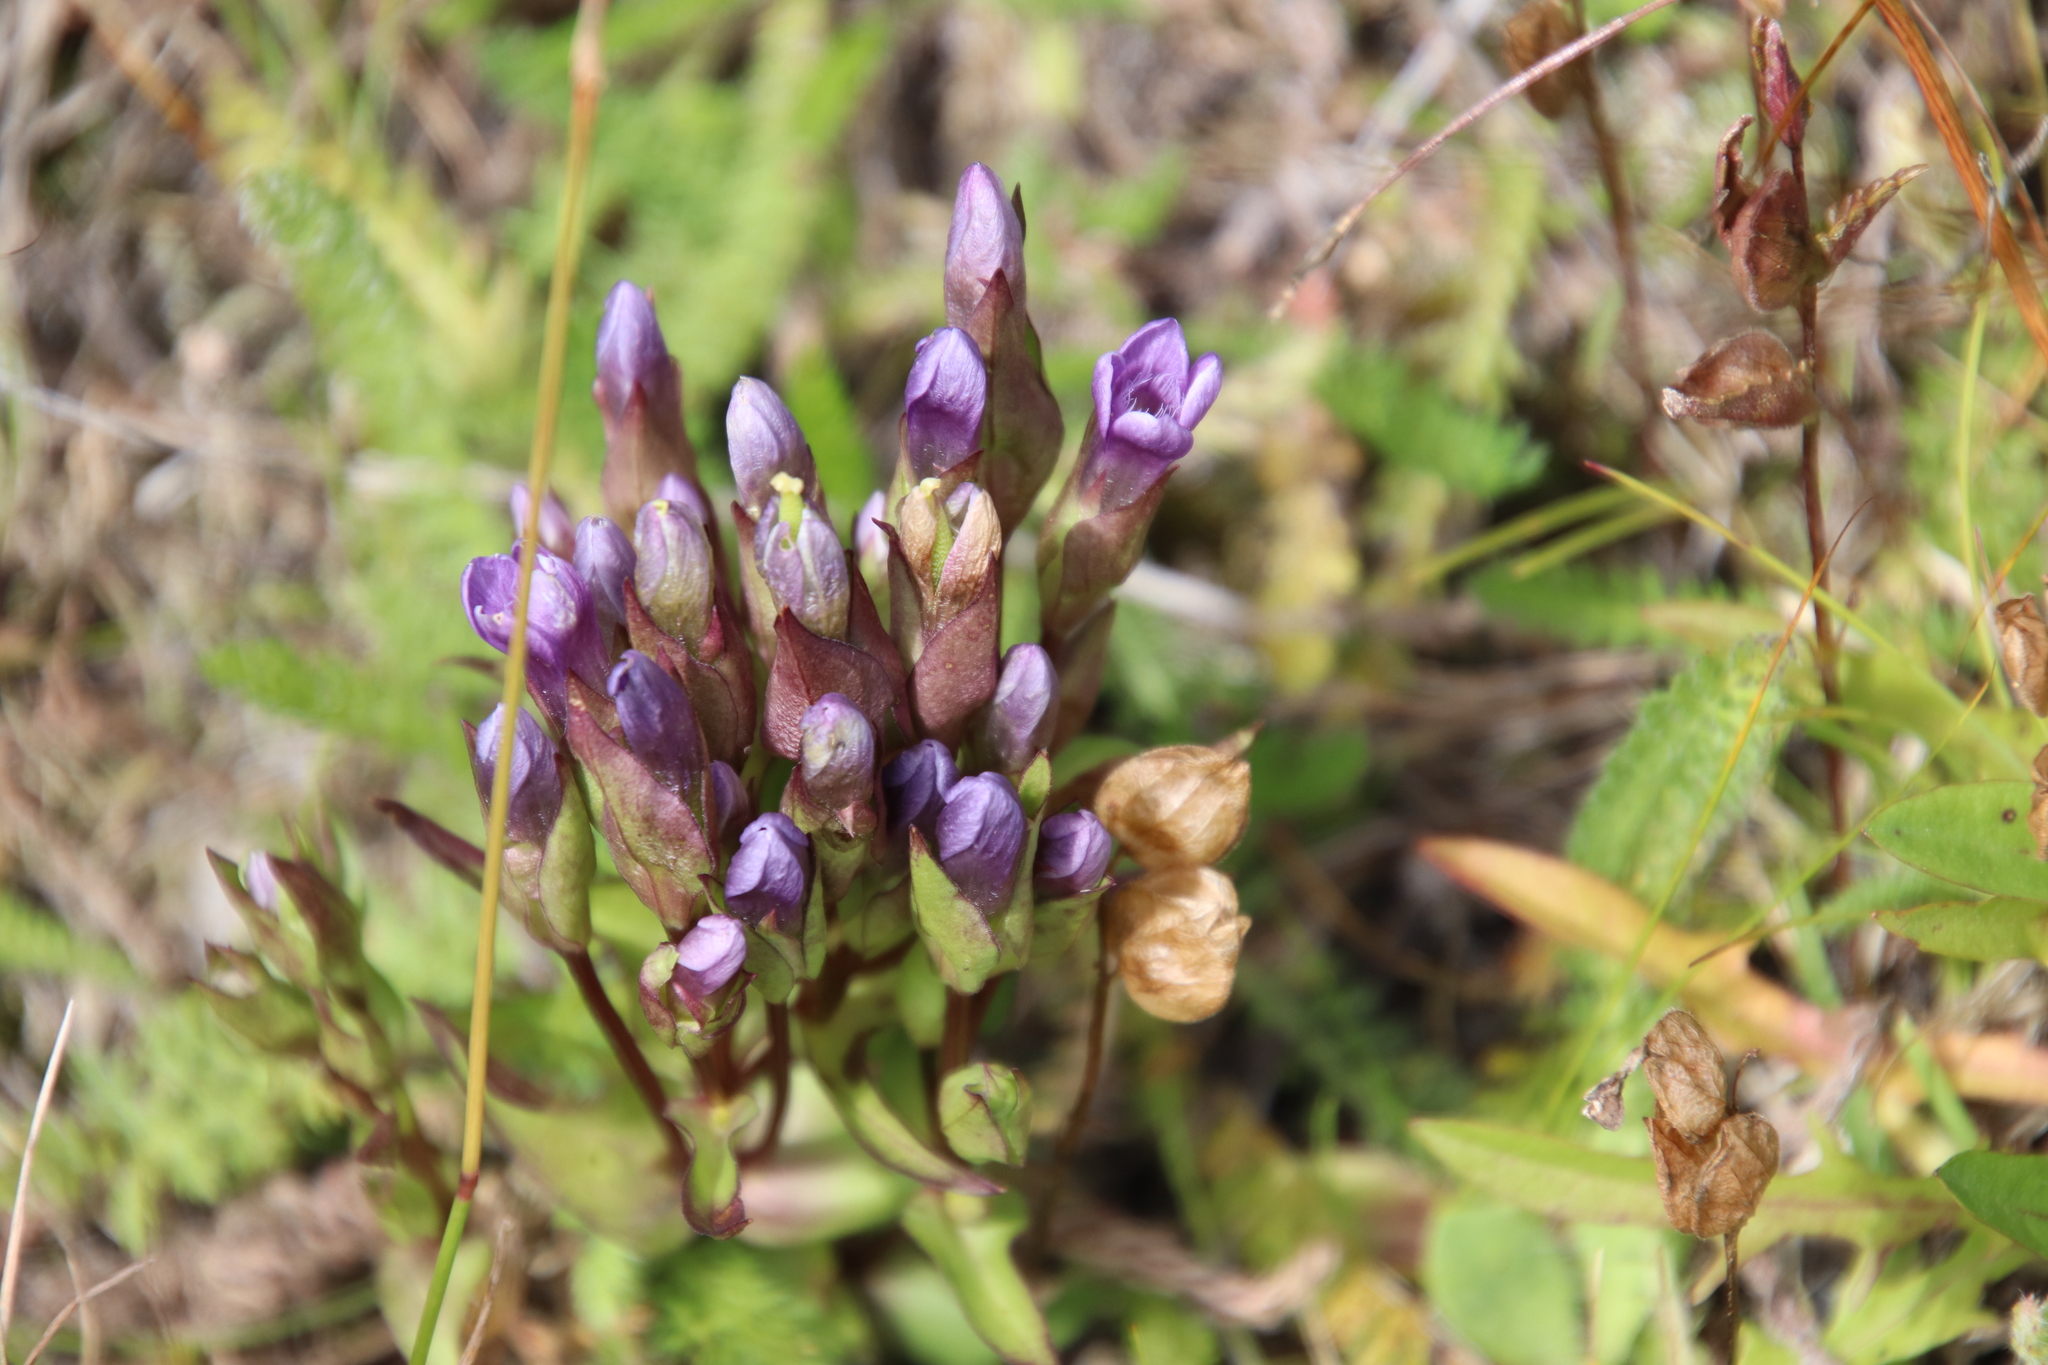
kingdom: Plantae
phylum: Tracheophyta
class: Magnoliopsida
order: Gentianales
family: Gentianaceae
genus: Gentianella
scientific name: Gentianella campestris
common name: Field gentian
